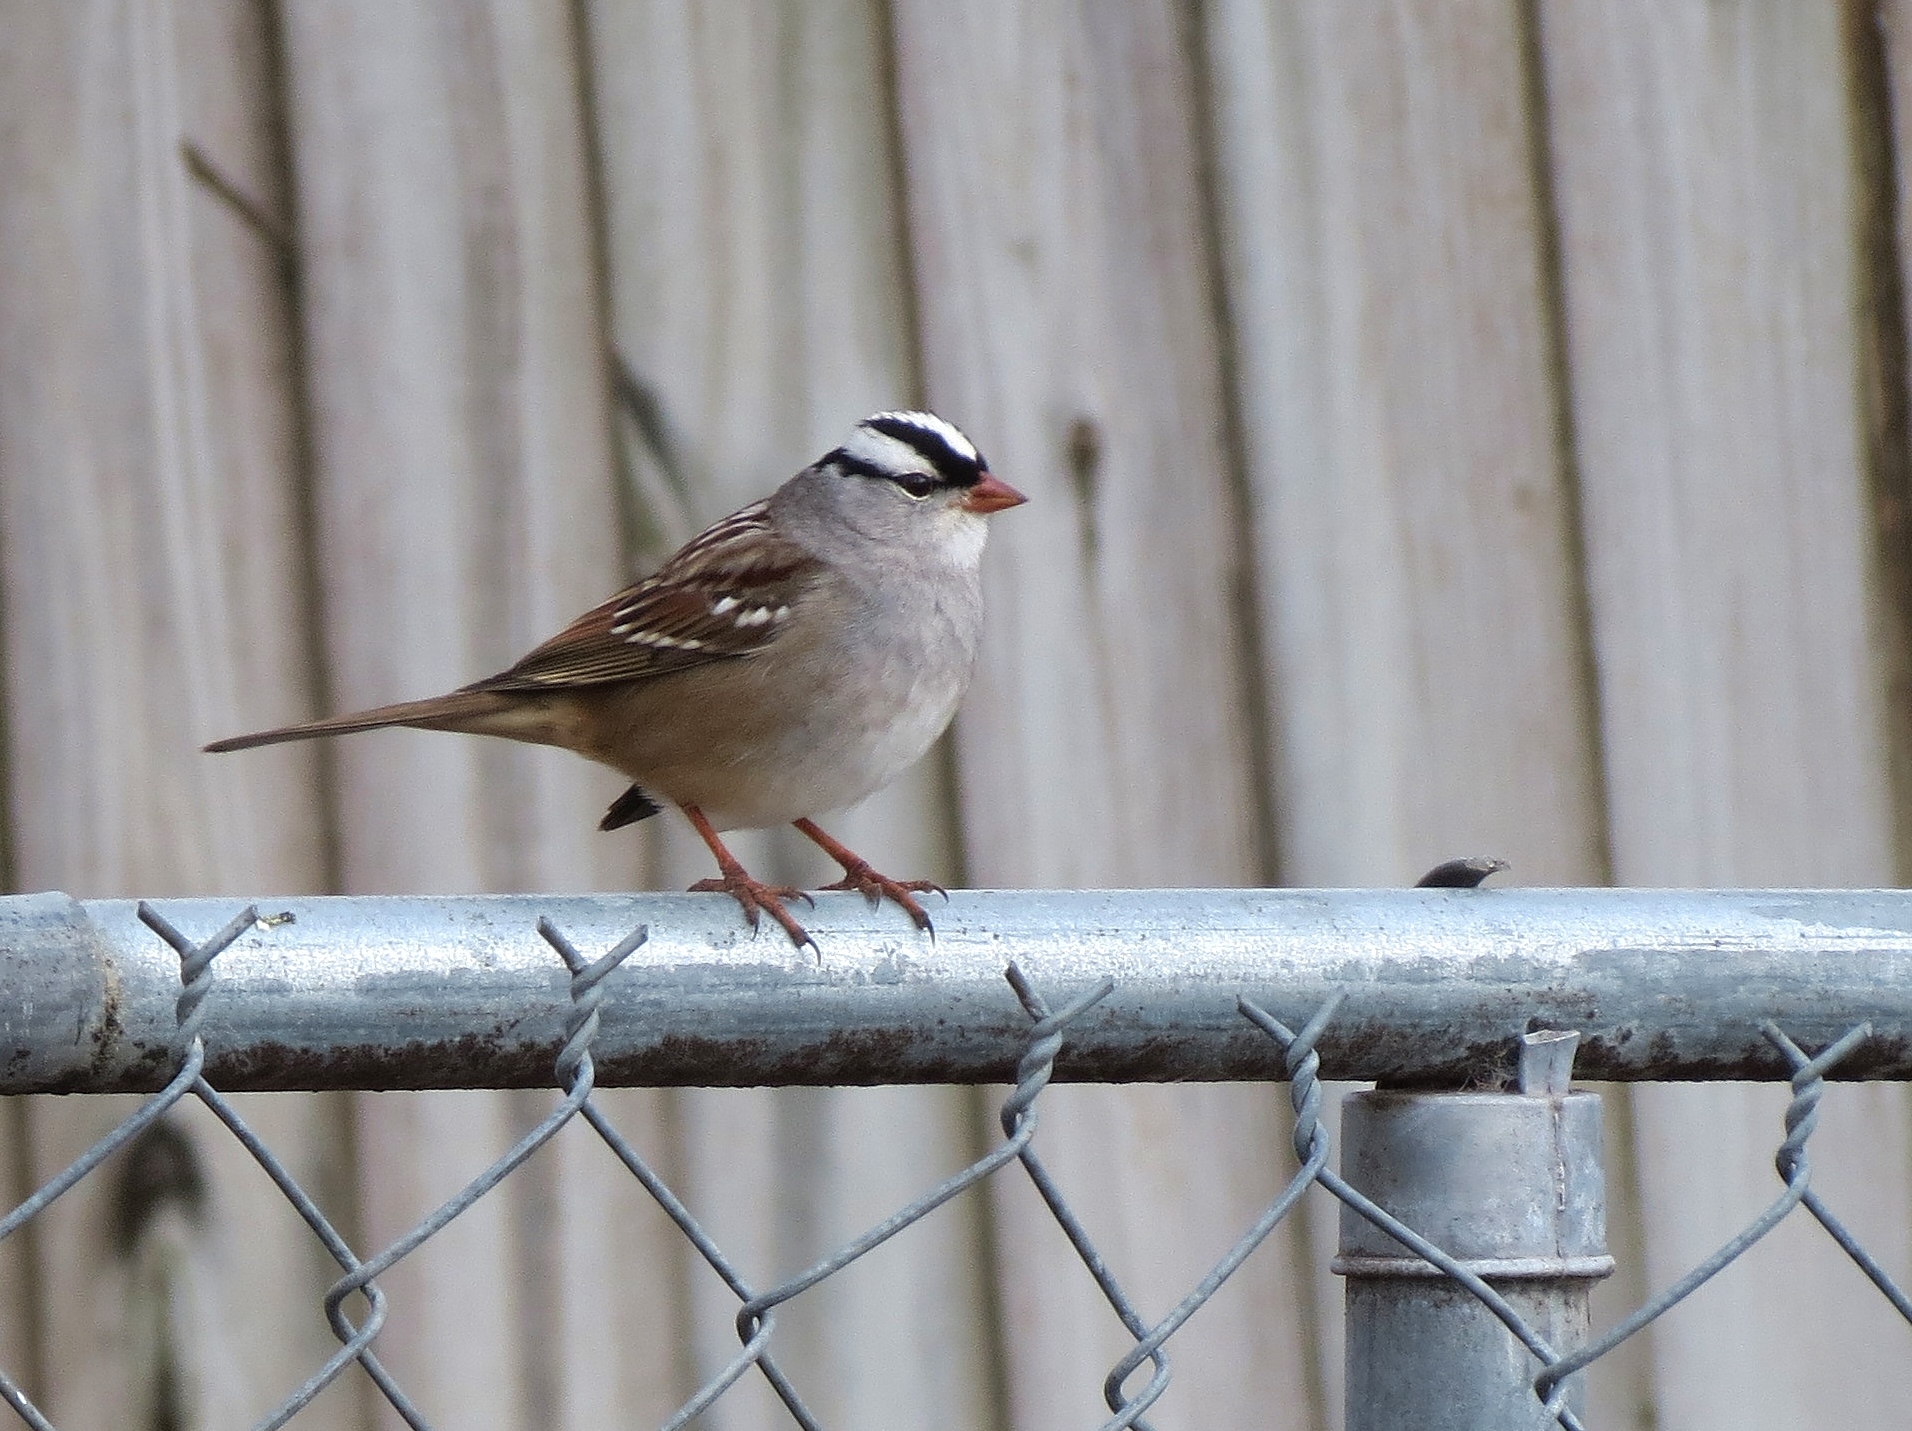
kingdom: Animalia
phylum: Chordata
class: Aves
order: Passeriformes
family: Passerellidae
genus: Zonotrichia
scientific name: Zonotrichia leucophrys
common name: White-crowned sparrow
